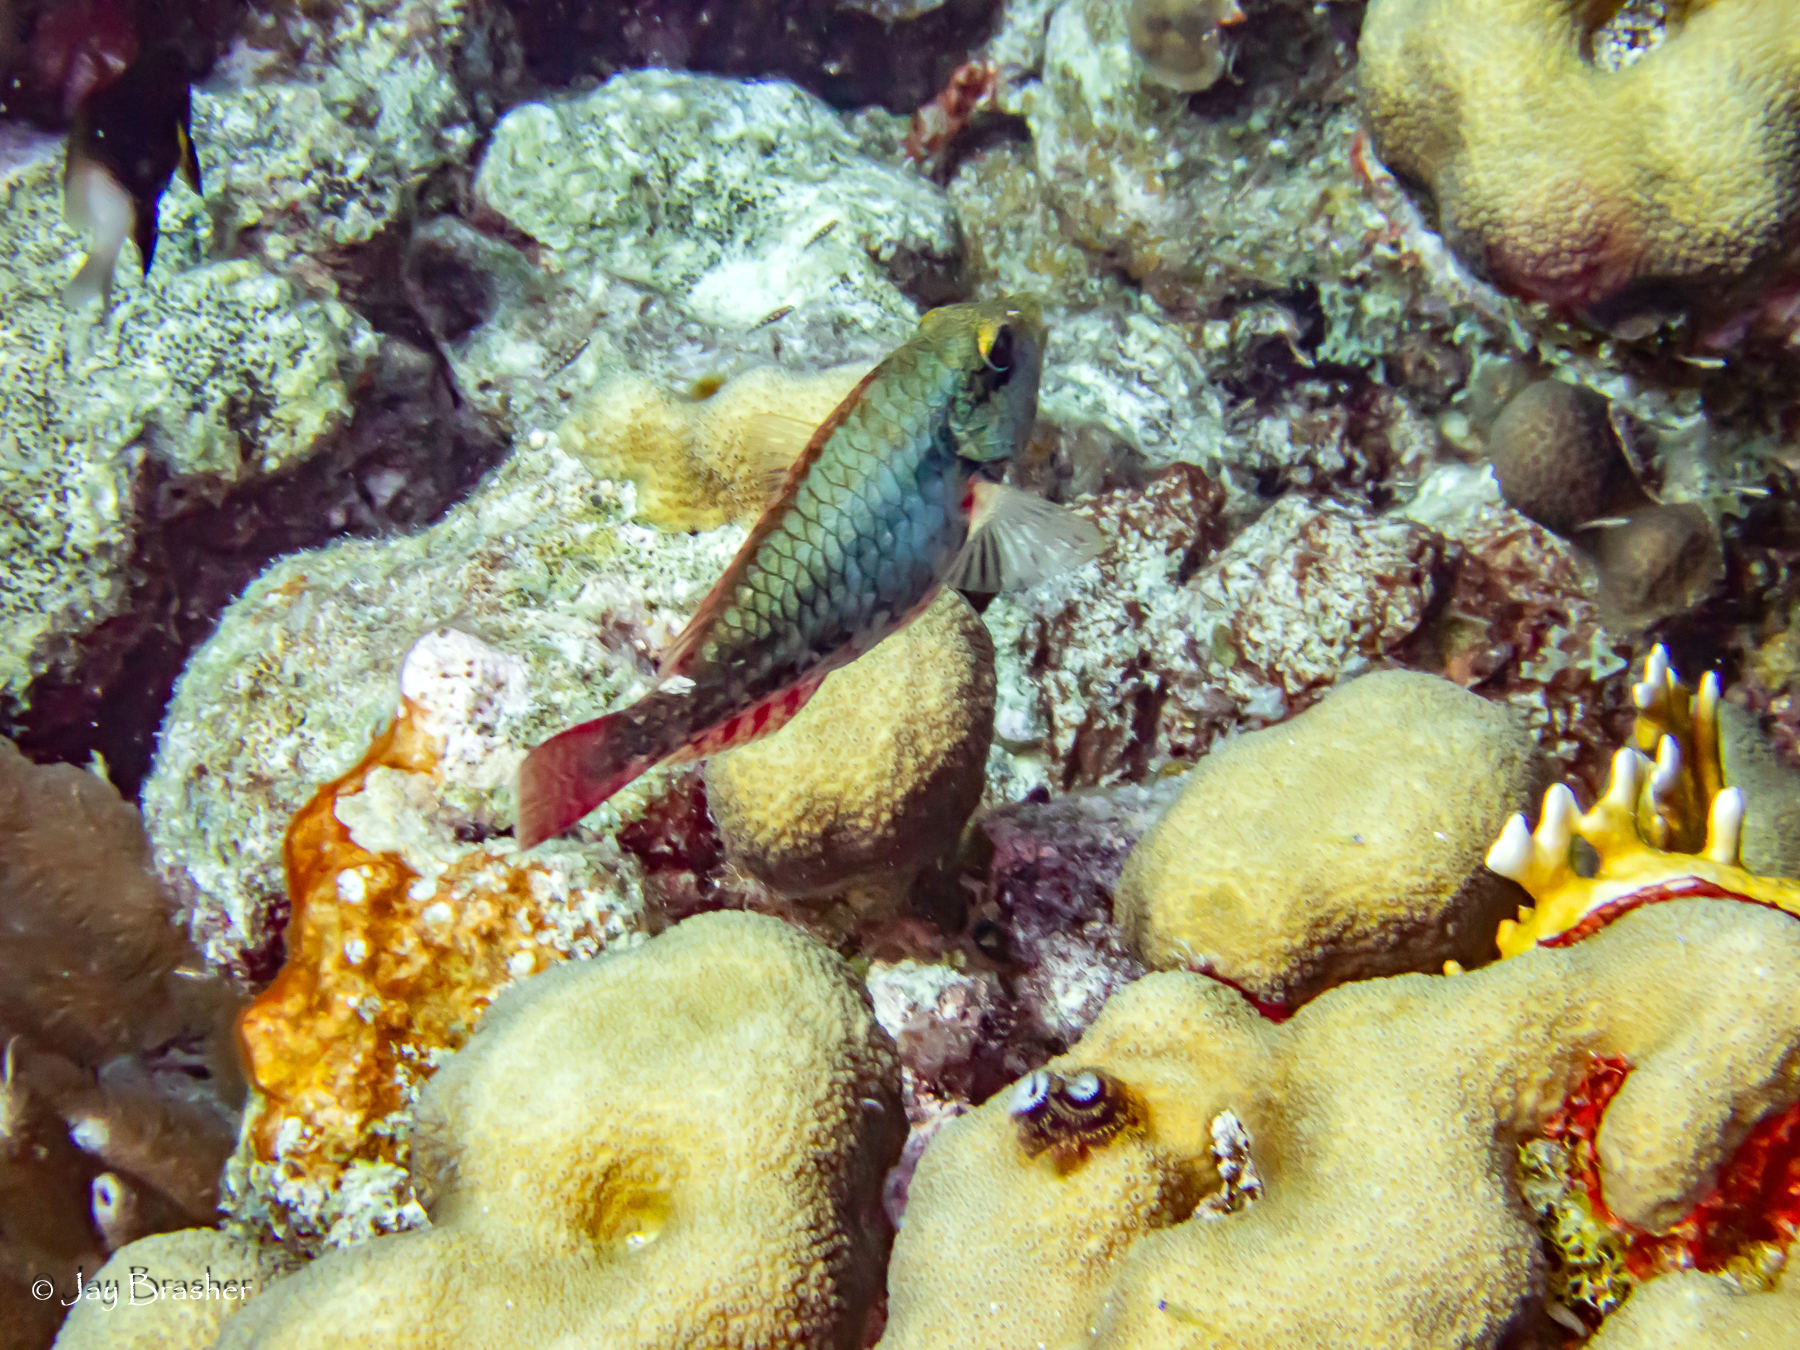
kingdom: Animalia
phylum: Chordata
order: Perciformes
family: Scaridae
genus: Sparisoma
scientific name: Sparisoma aurofrenatum
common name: Redband parrotfish
